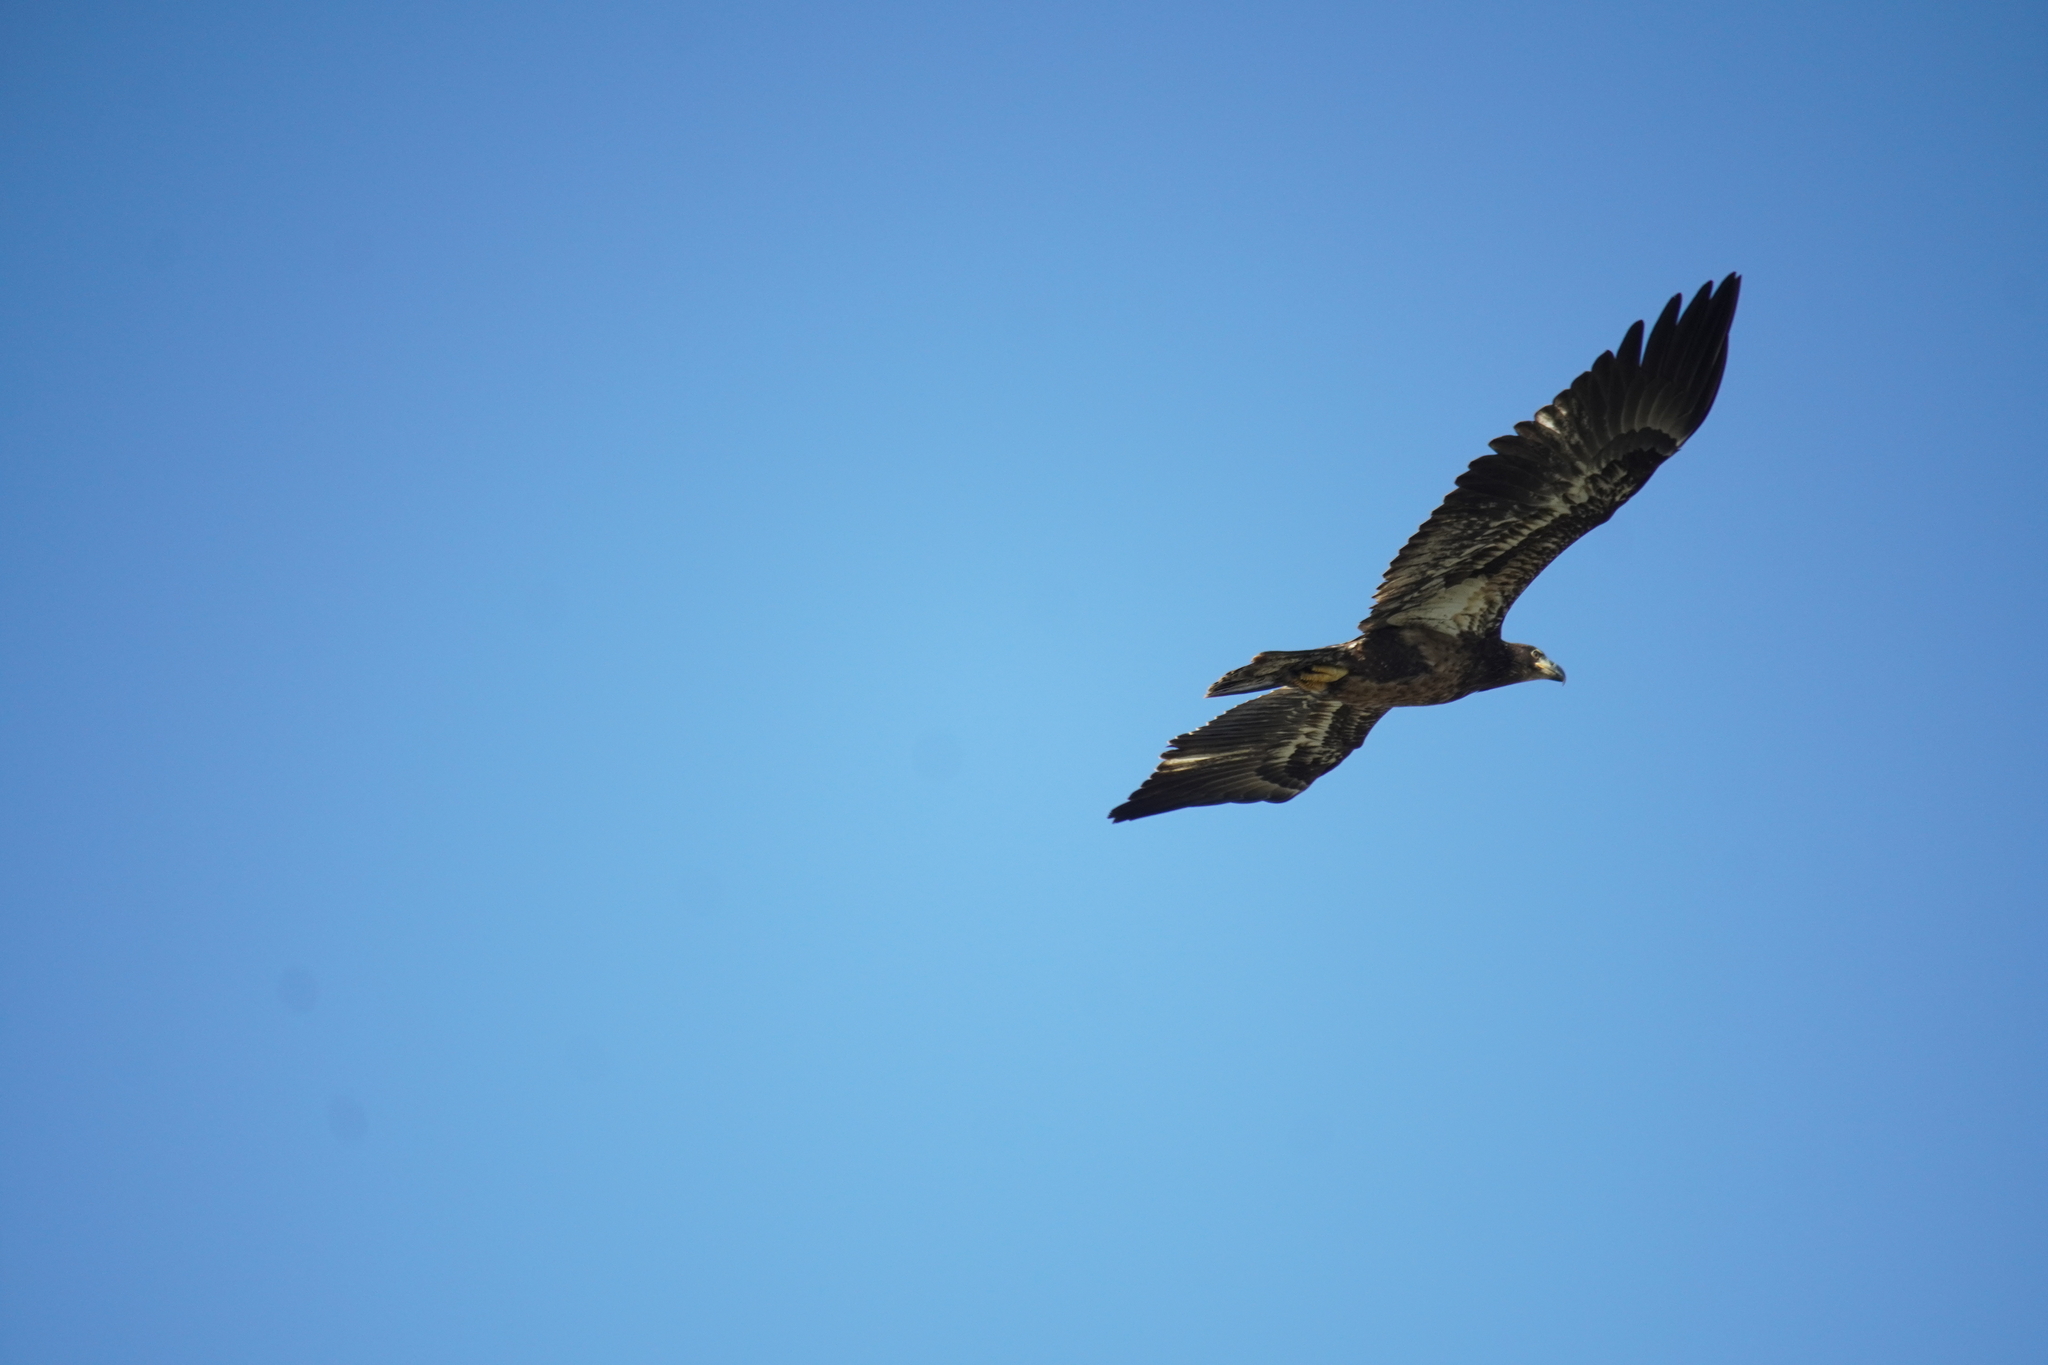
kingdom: Animalia
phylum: Chordata
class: Aves
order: Accipitriformes
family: Accipitridae
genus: Haliaeetus
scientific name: Haliaeetus leucocephalus
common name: Bald eagle
